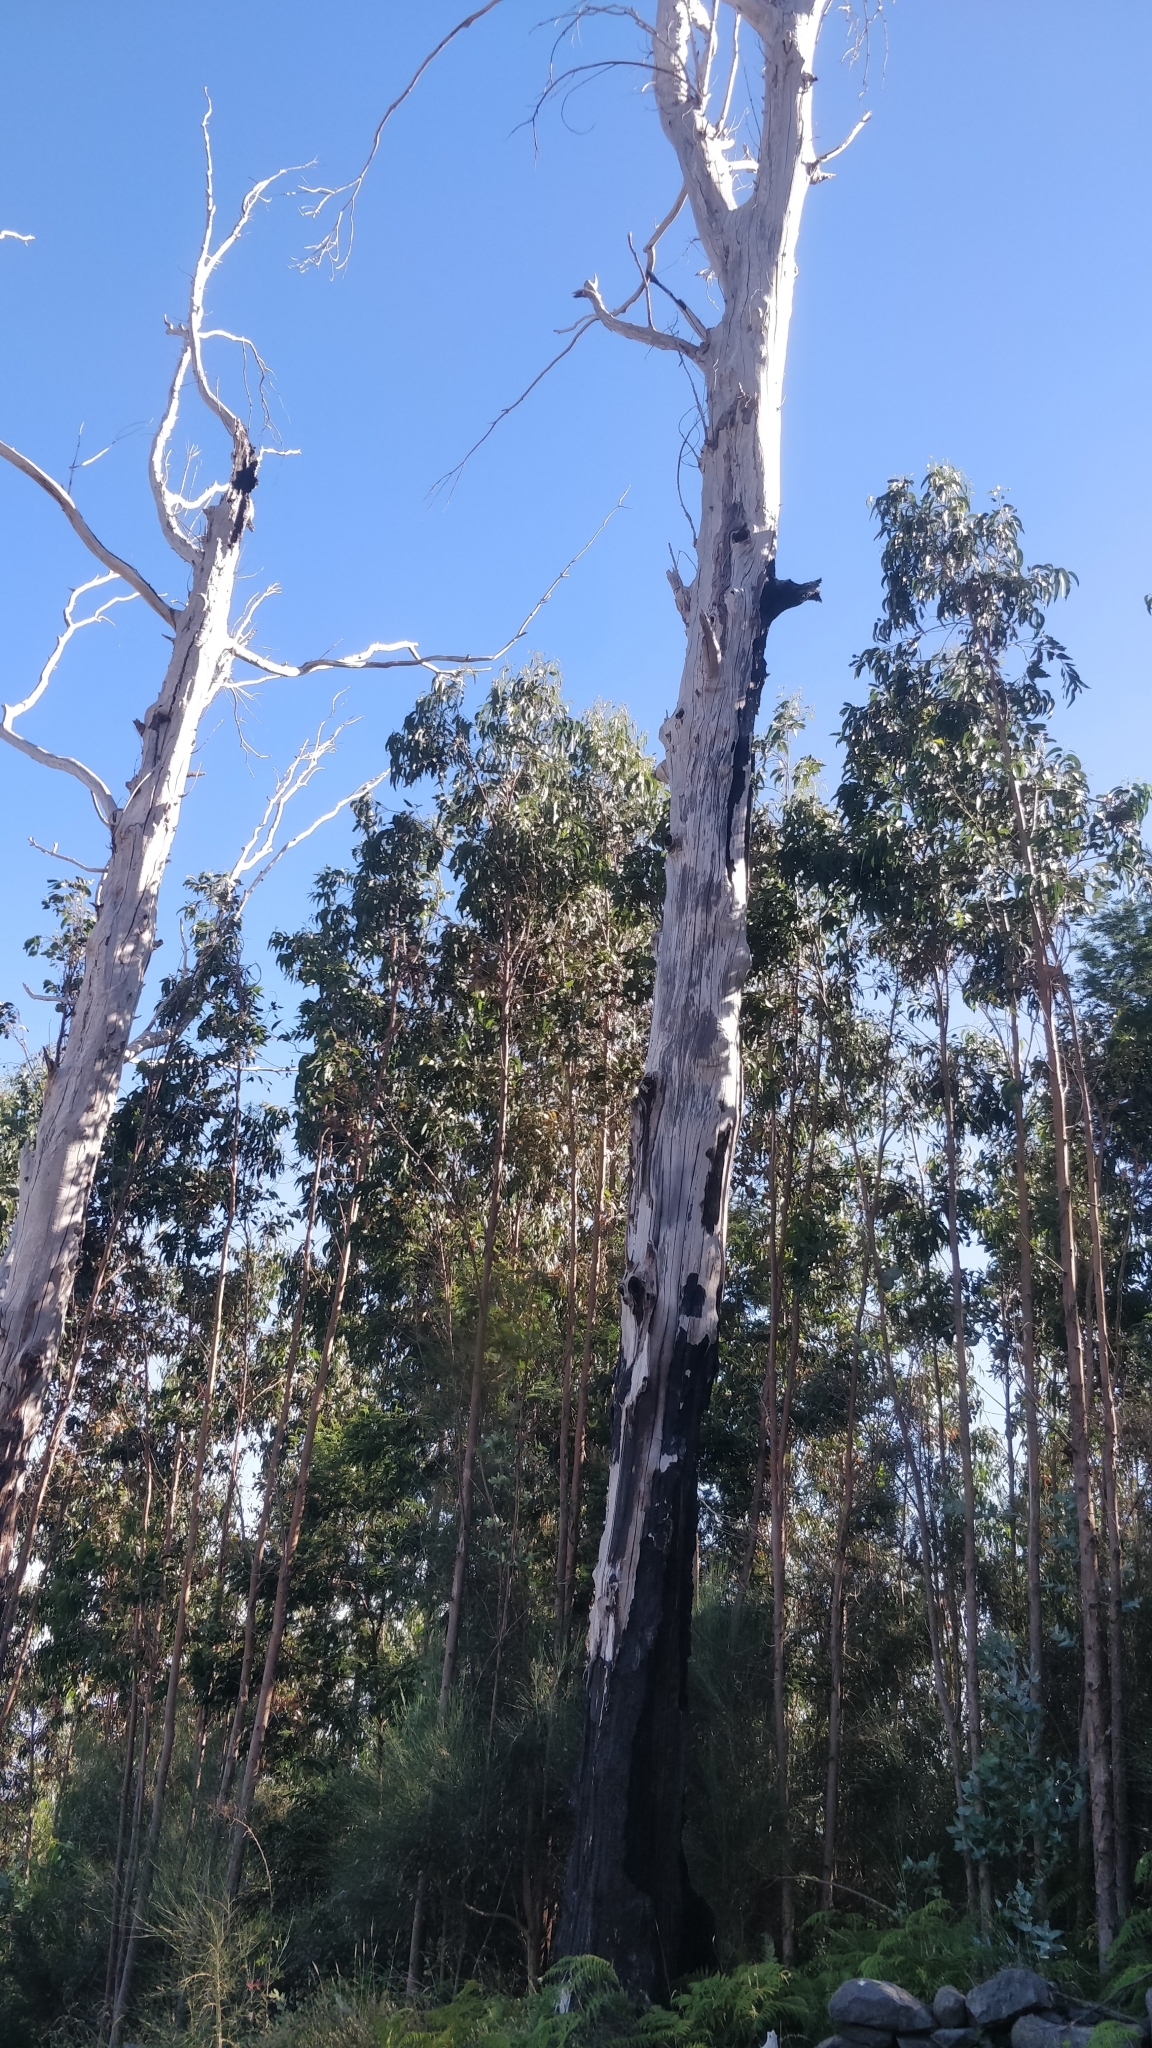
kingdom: Plantae
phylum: Tracheophyta
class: Magnoliopsida
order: Myrtales
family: Myrtaceae
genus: Eucalyptus
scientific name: Eucalyptus globulus
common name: Southern blue-gum
